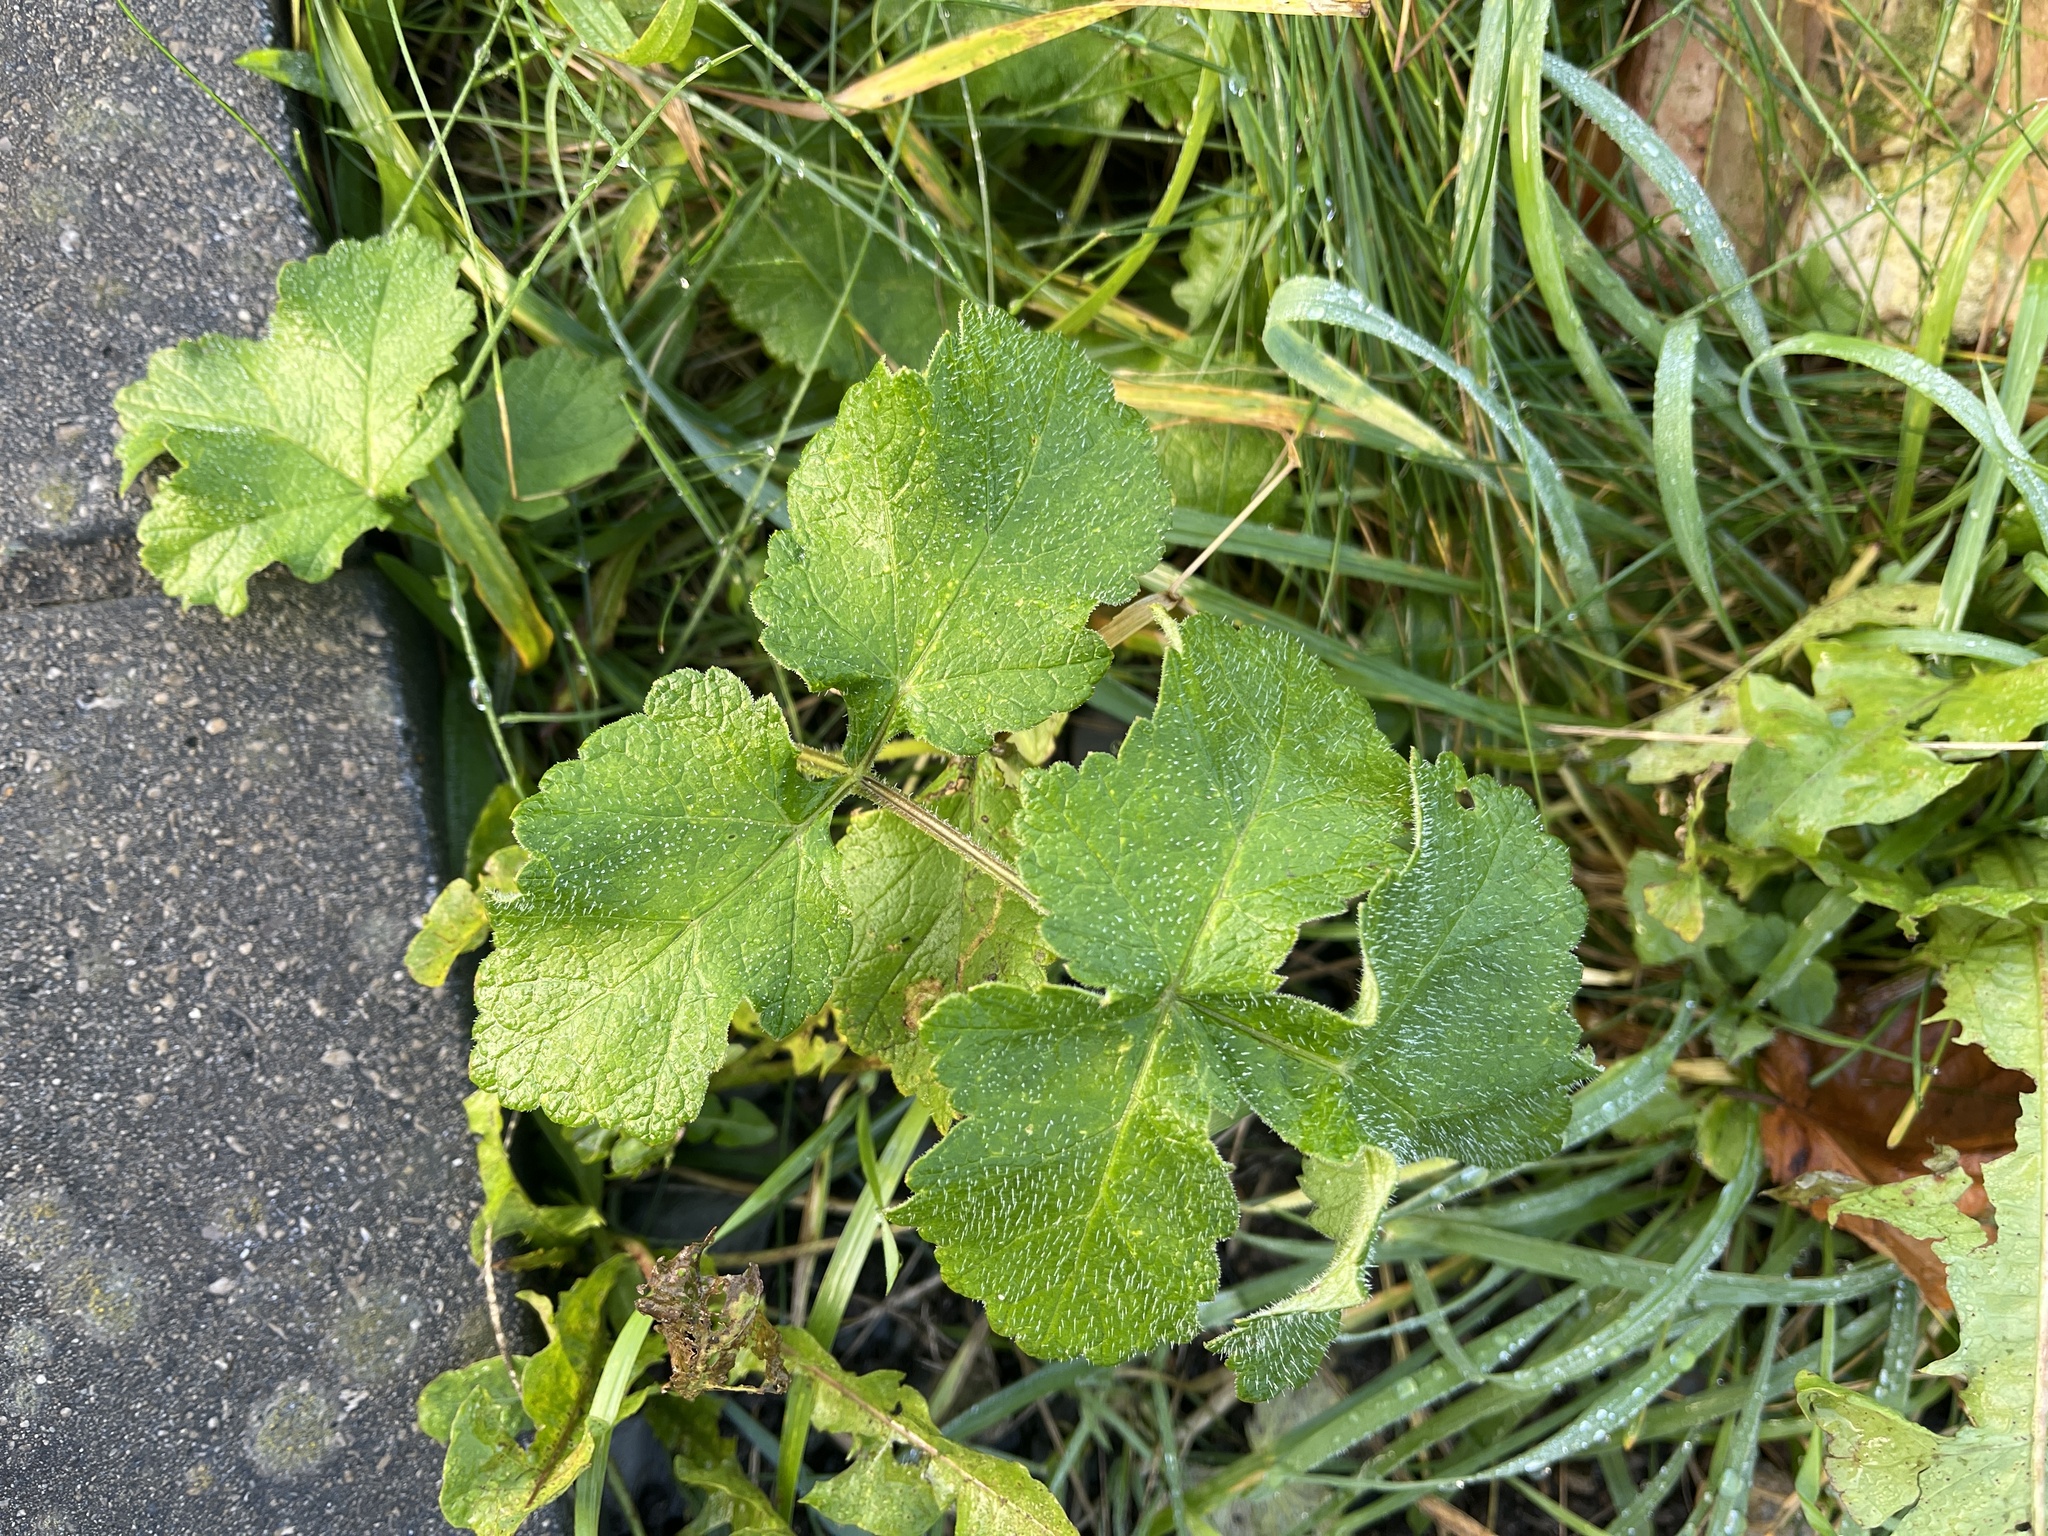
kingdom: Plantae
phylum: Tracheophyta
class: Magnoliopsida
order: Apiales
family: Apiaceae
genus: Heracleum
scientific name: Heracleum sphondylium
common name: Hogweed
